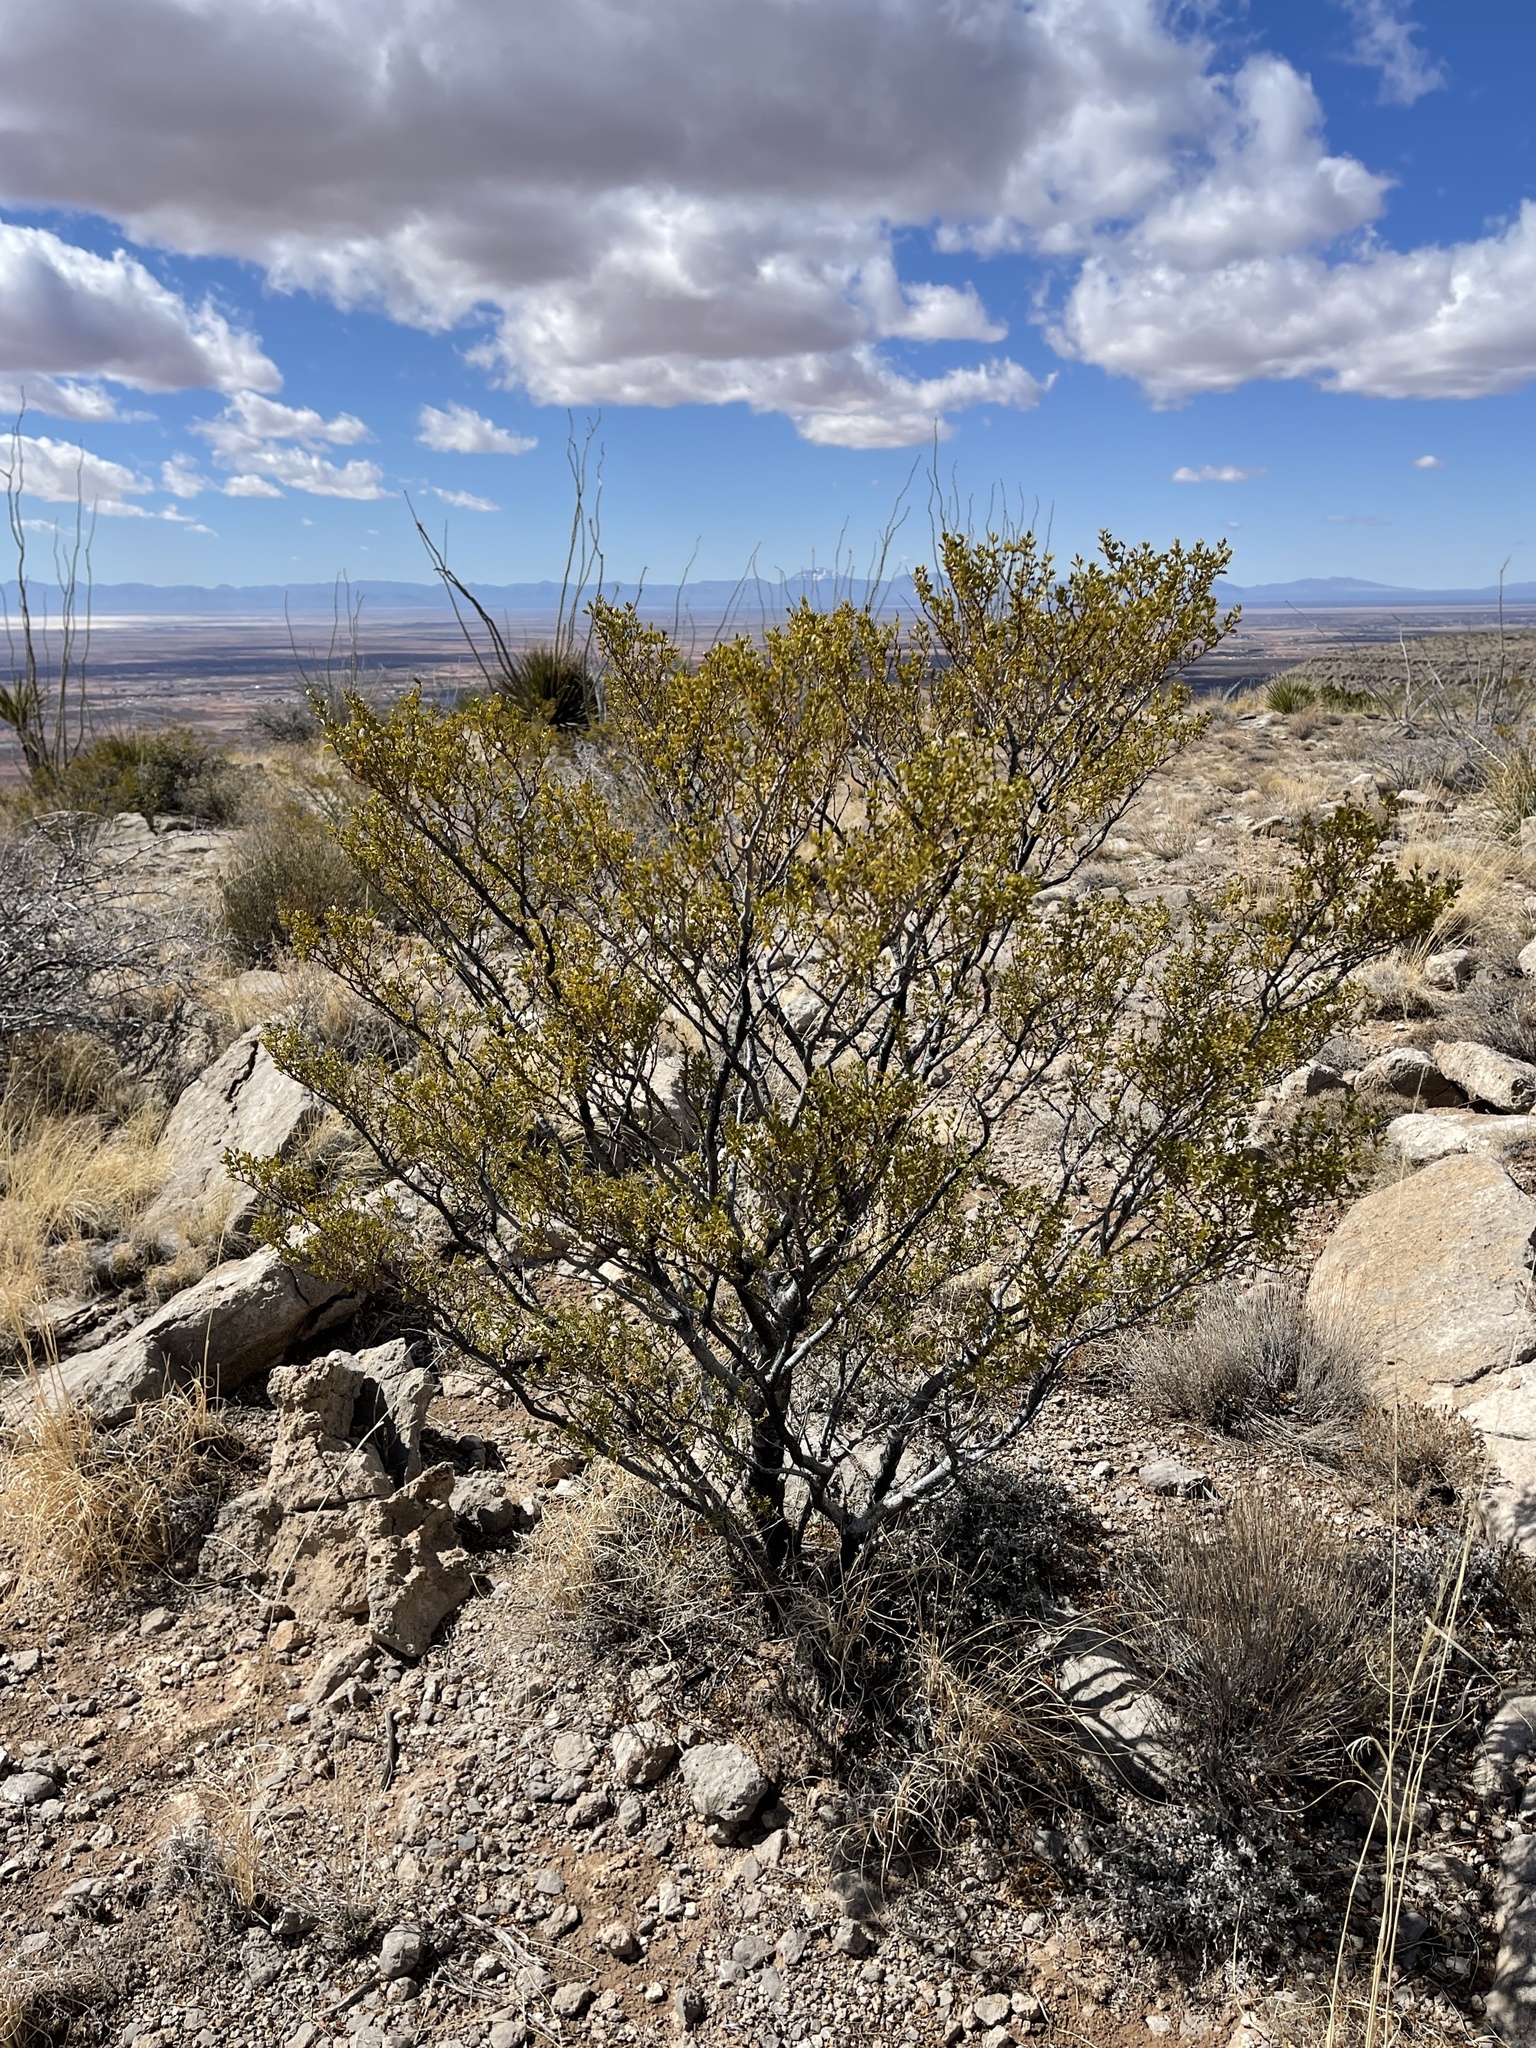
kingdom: Plantae
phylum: Tracheophyta
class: Magnoliopsida
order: Zygophyllales
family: Zygophyllaceae
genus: Larrea
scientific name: Larrea tridentata
